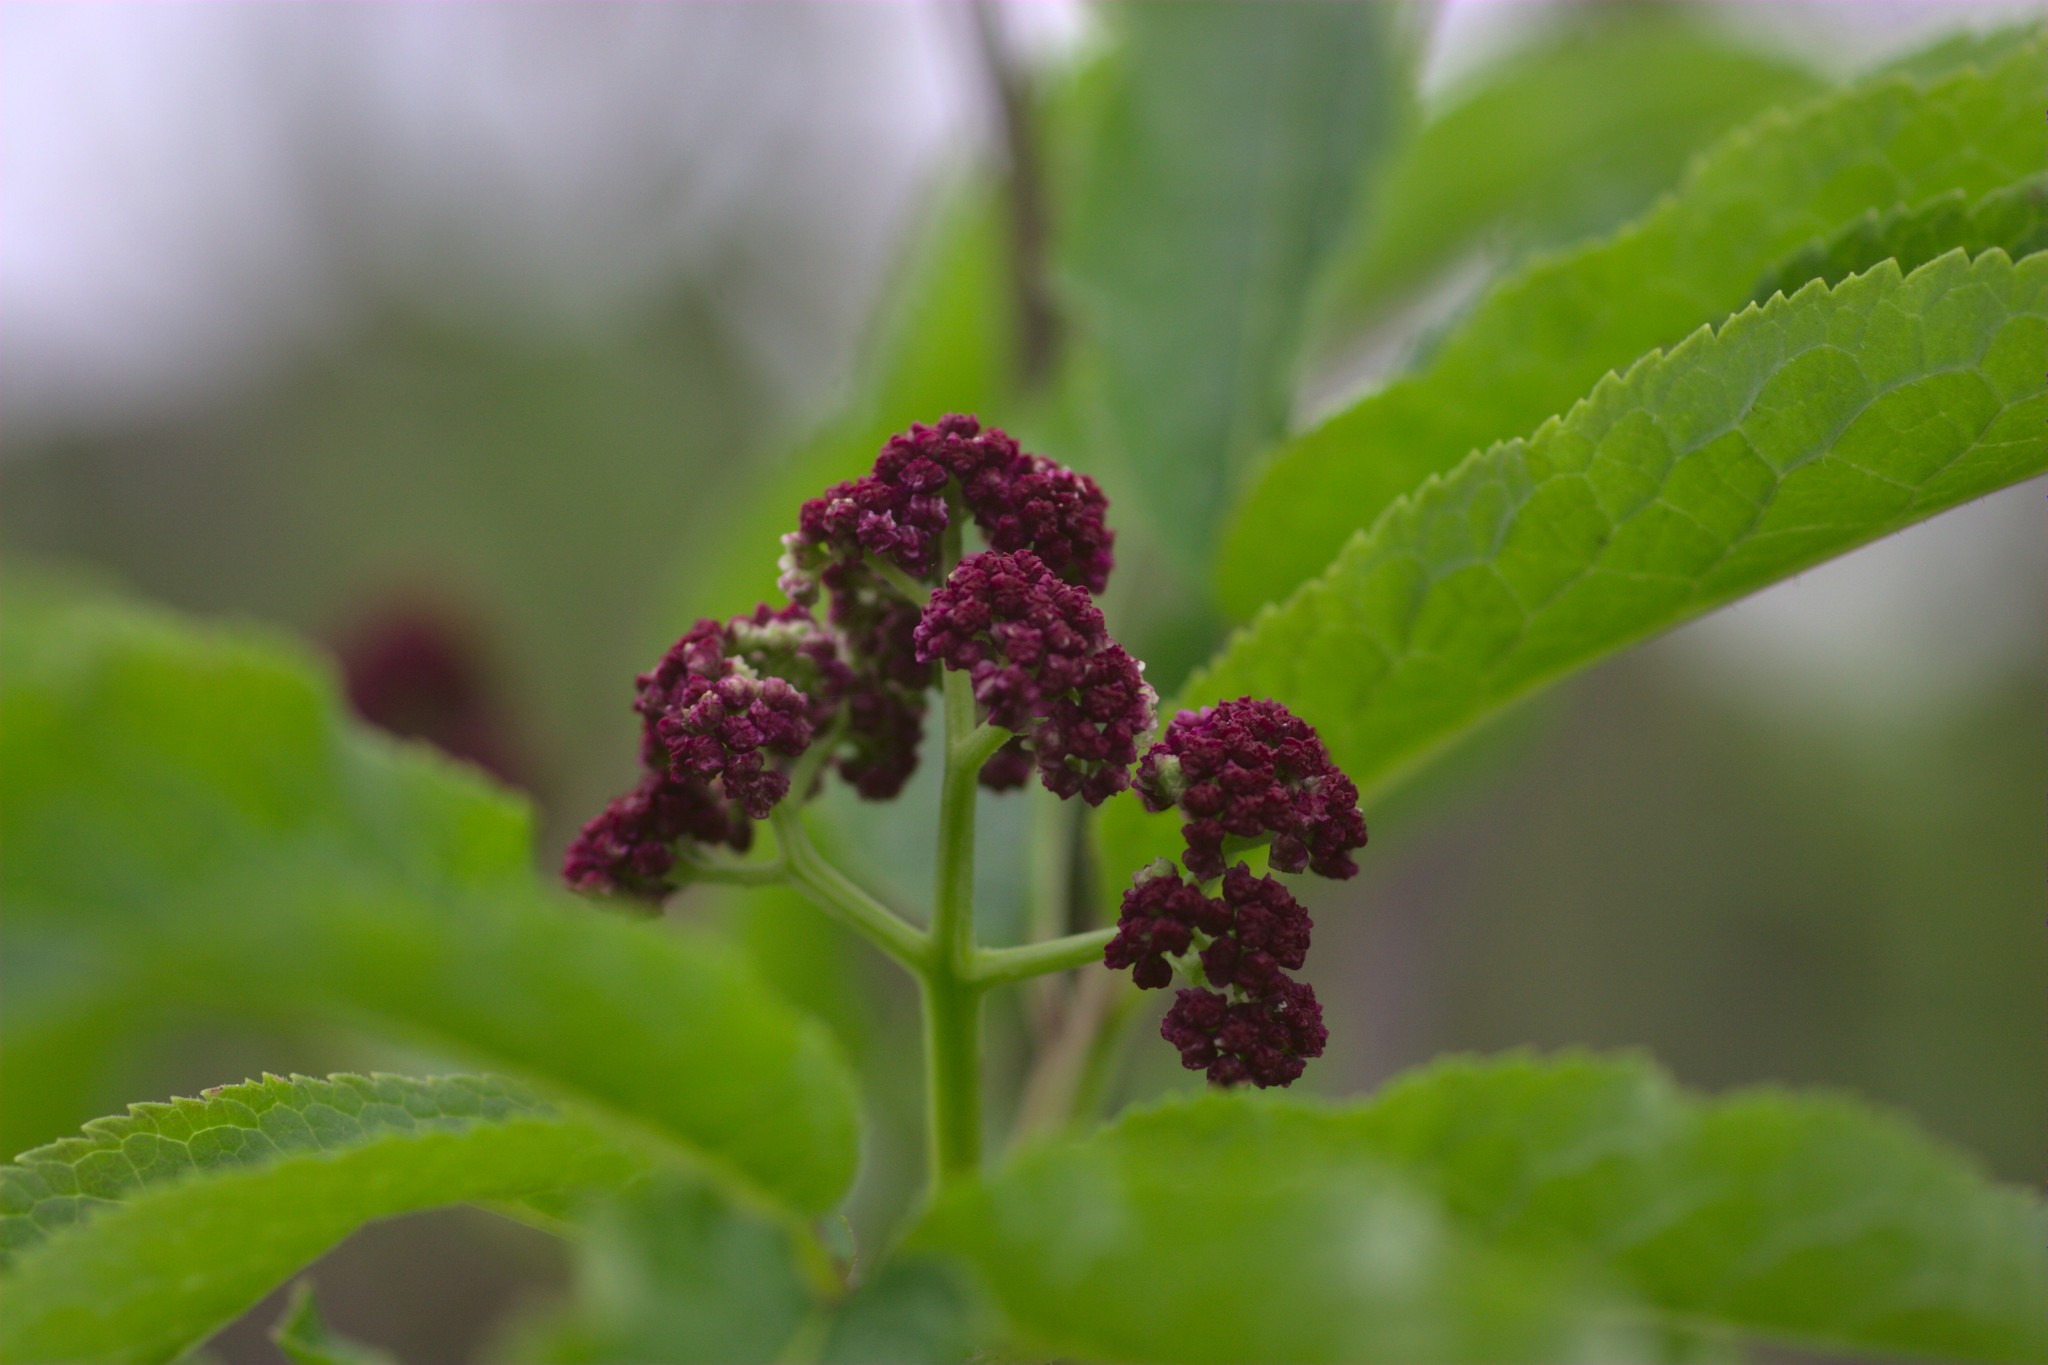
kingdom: Plantae
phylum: Tracheophyta
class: Magnoliopsida
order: Dipsacales
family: Viburnaceae
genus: Sambucus
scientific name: Sambucus racemosa
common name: Red-berried elder
